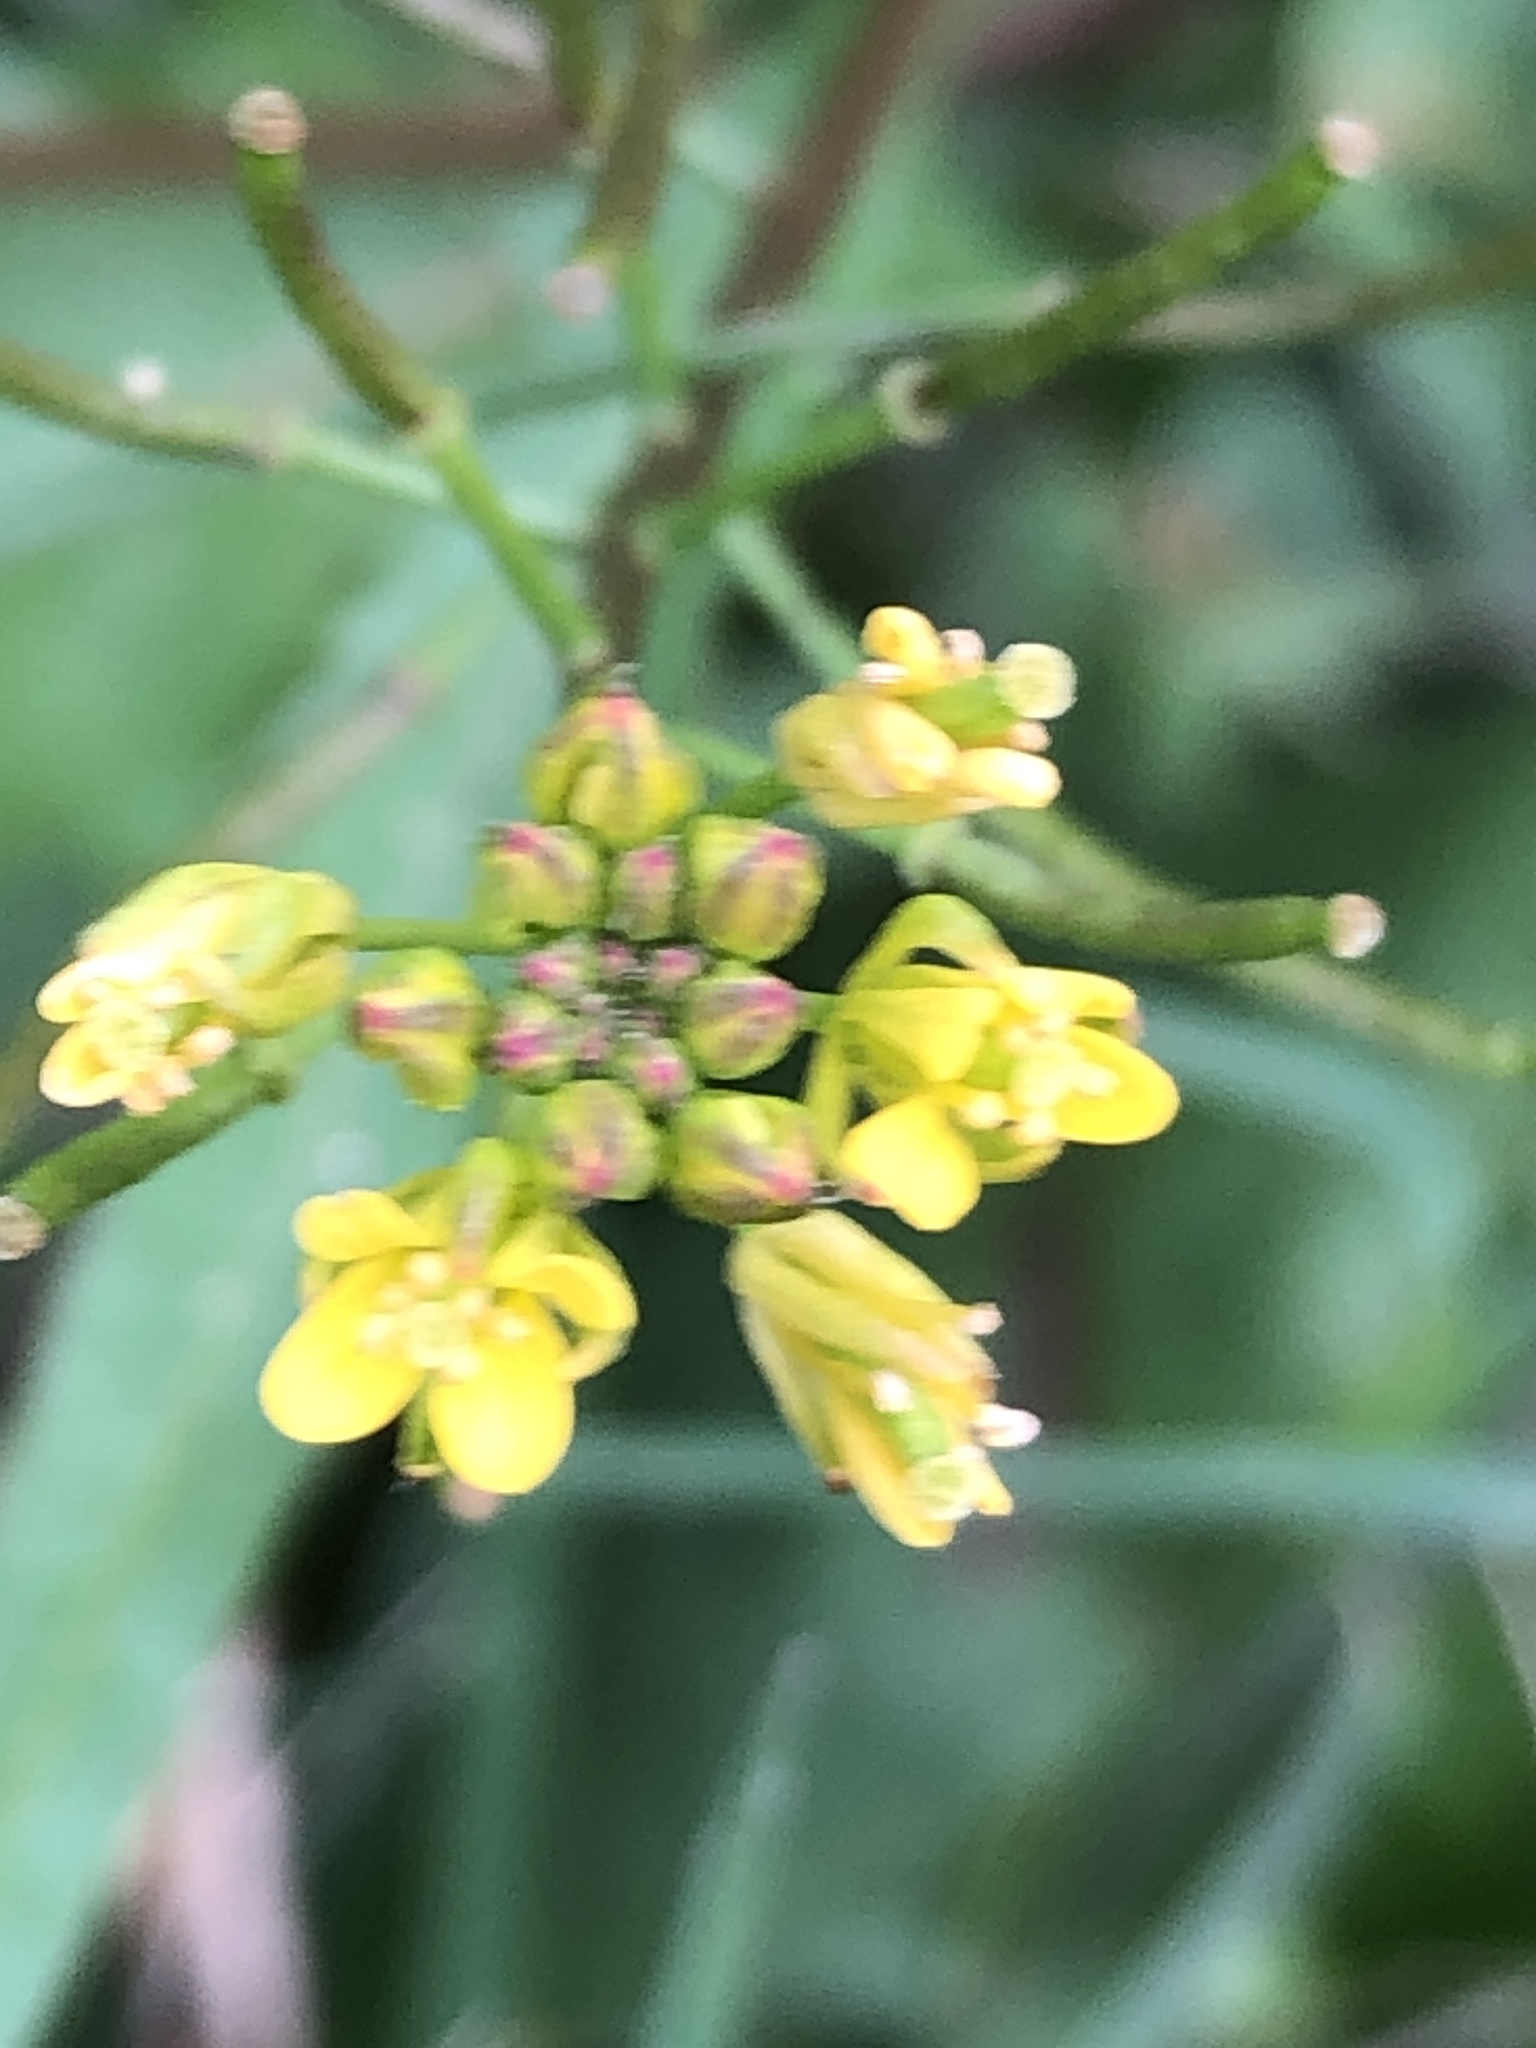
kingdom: Plantae
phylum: Tracheophyta
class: Magnoliopsida
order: Brassicales
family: Brassicaceae
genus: Rorippa
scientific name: Rorippa indica
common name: Variableleaf yellowcress
